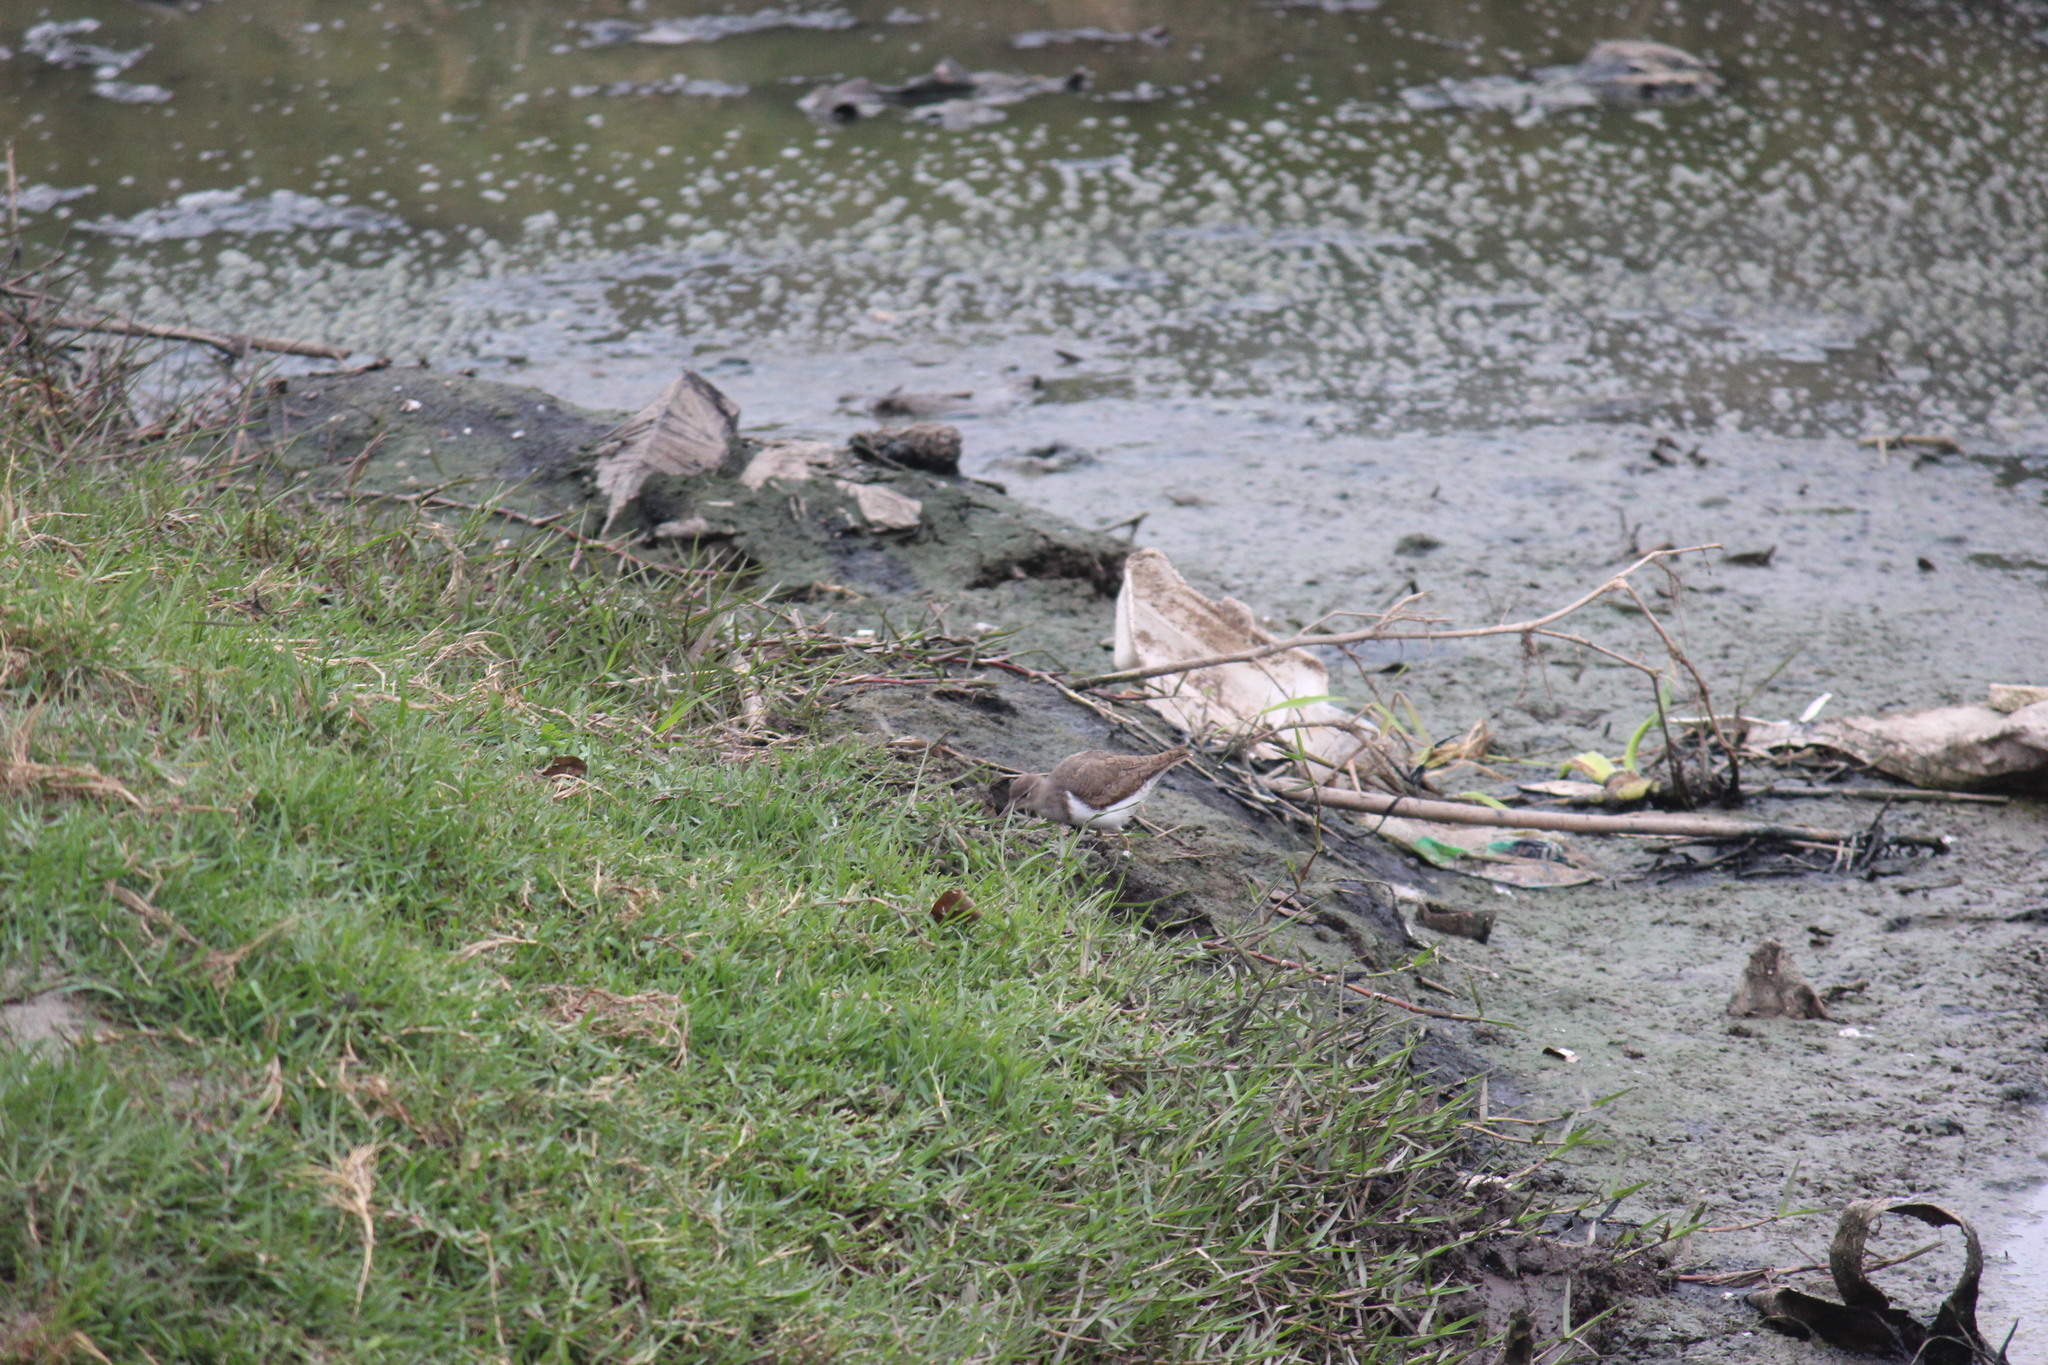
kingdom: Animalia
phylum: Chordata
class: Aves
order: Charadriiformes
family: Scolopacidae
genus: Actitis
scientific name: Actitis macularius
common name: Spotted sandpiper
